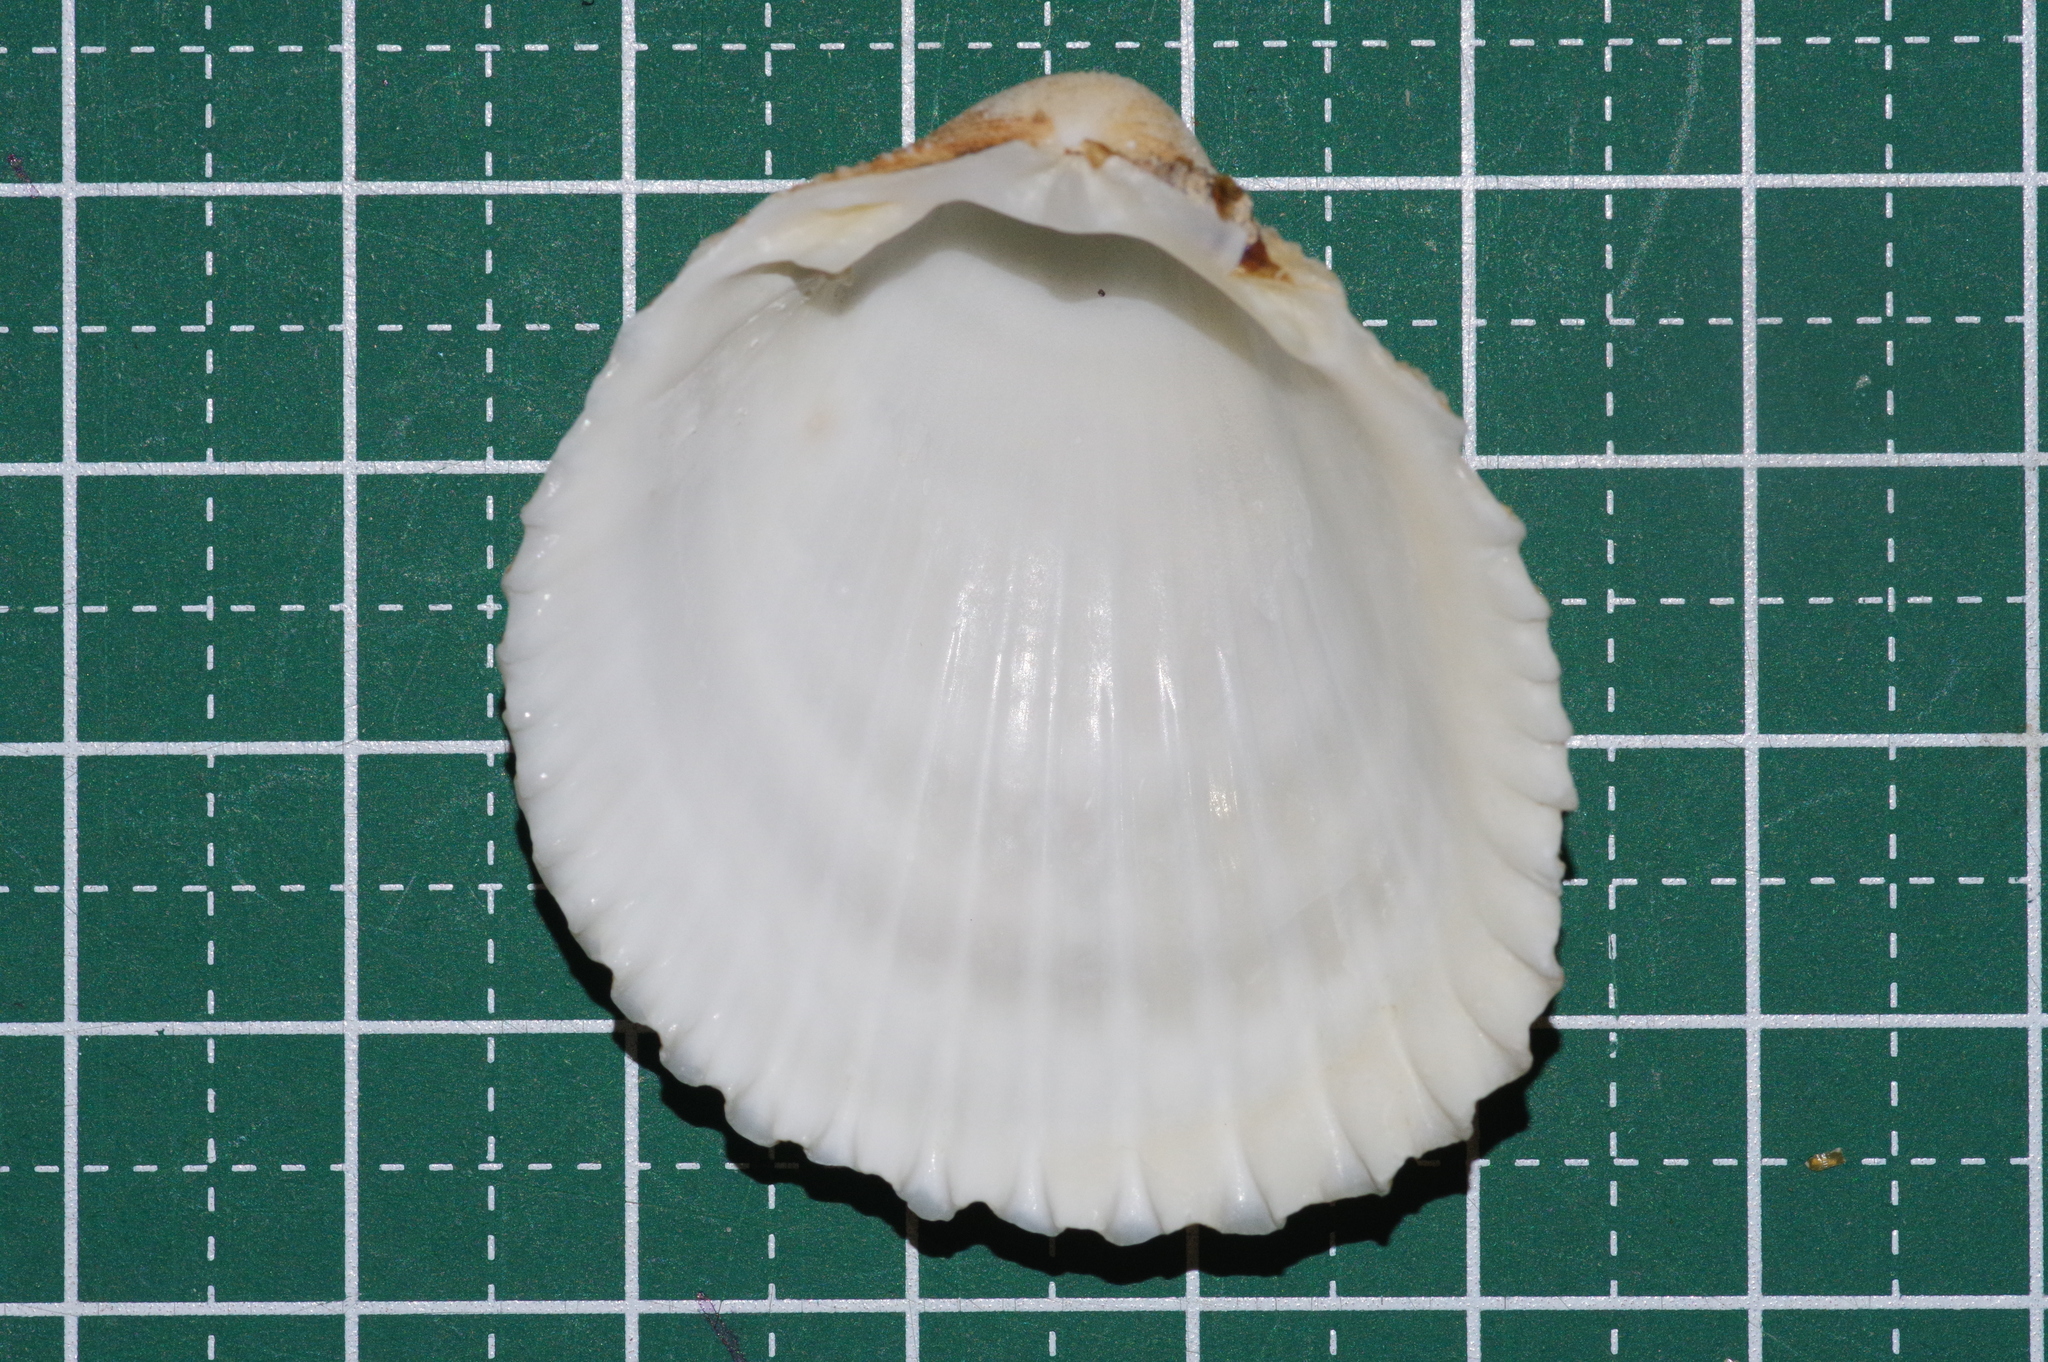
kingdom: Animalia
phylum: Mollusca
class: Bivalvia
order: Cardiida
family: Cardiidae
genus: Vasticardium
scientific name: Vasticardium pectiniforme
